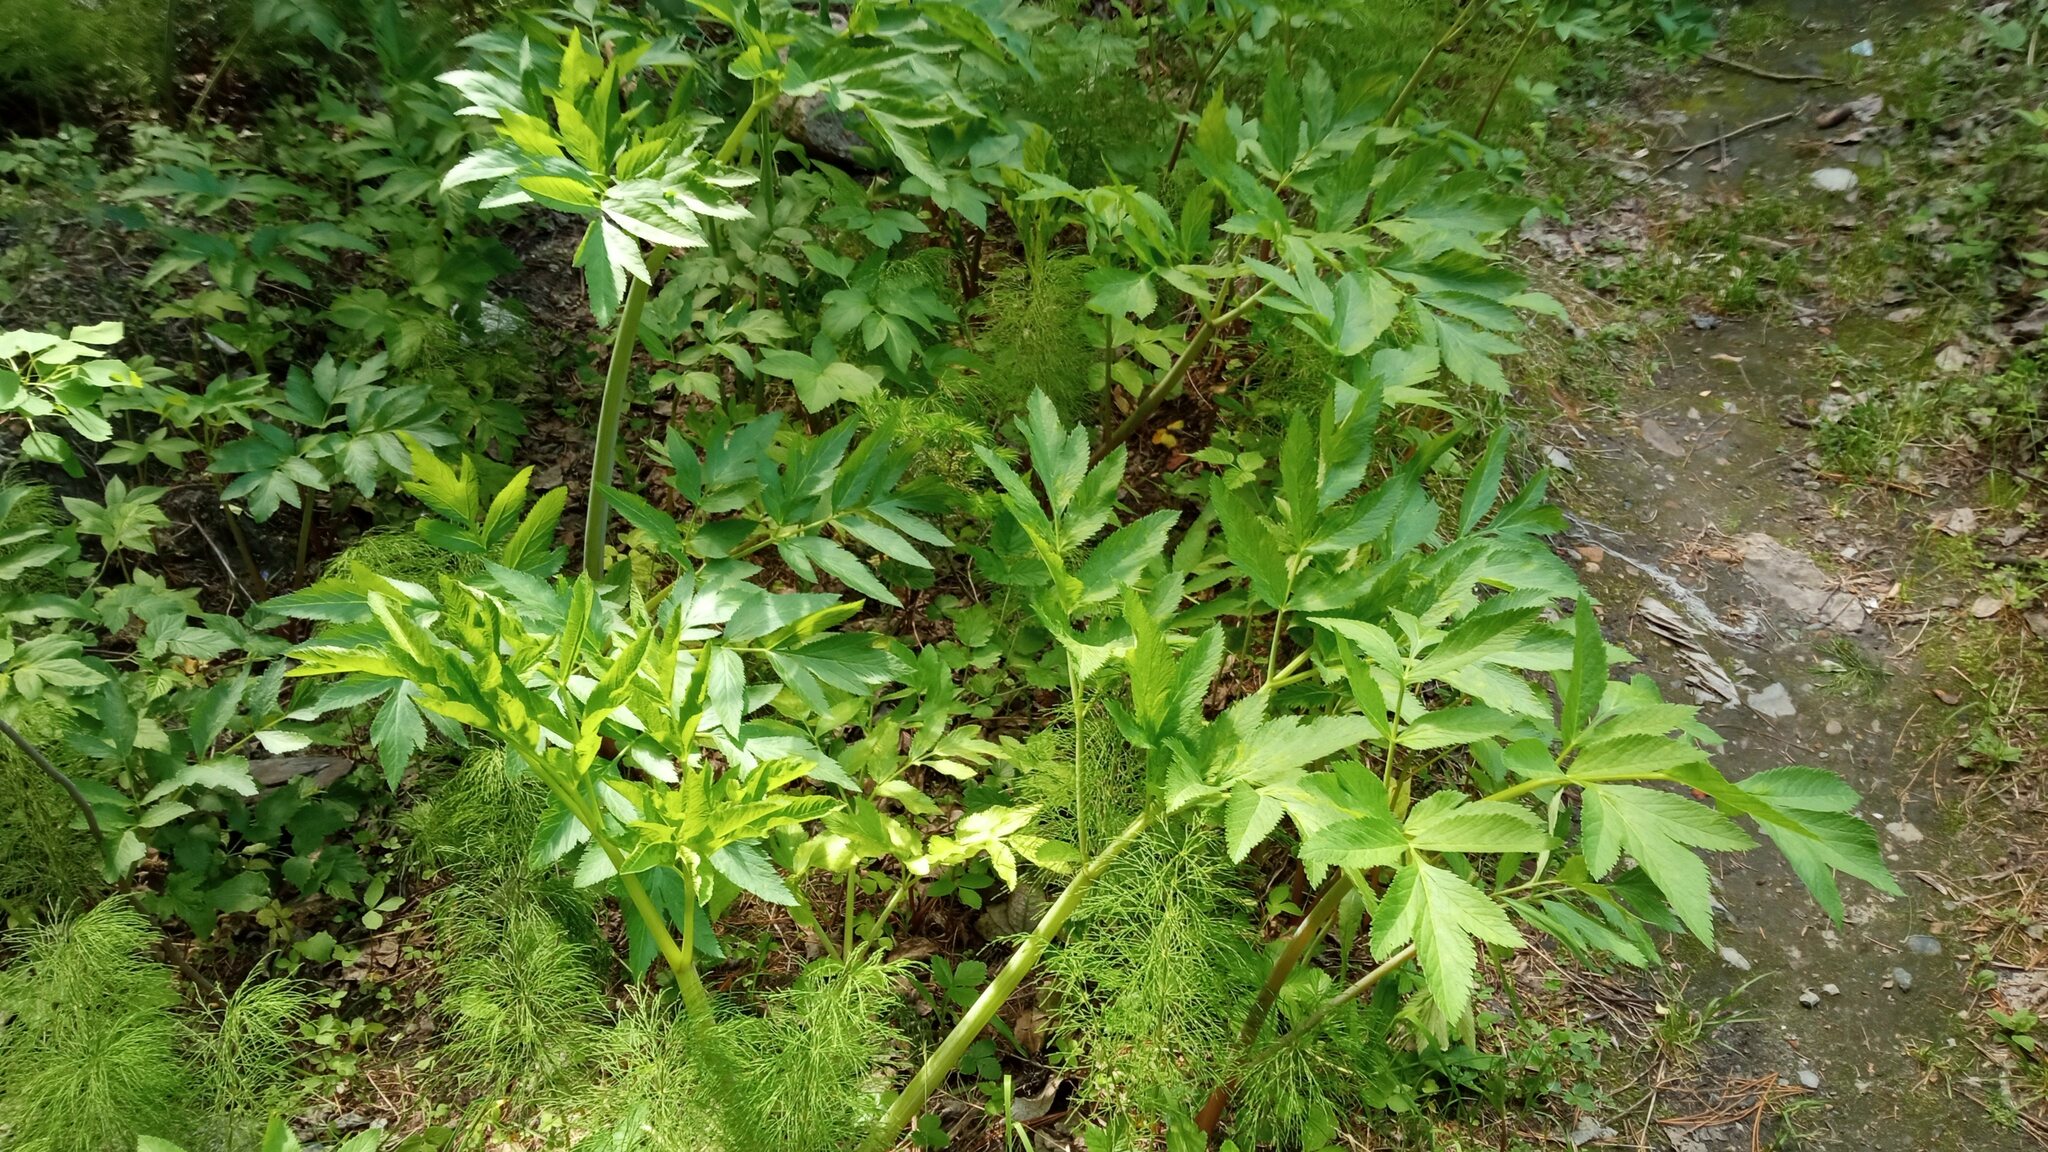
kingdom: Plantae
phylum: Tracheophyta
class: Magnoliopsida
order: Apiales
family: Apiaceae
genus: Angelica
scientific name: Angelica decurrens
